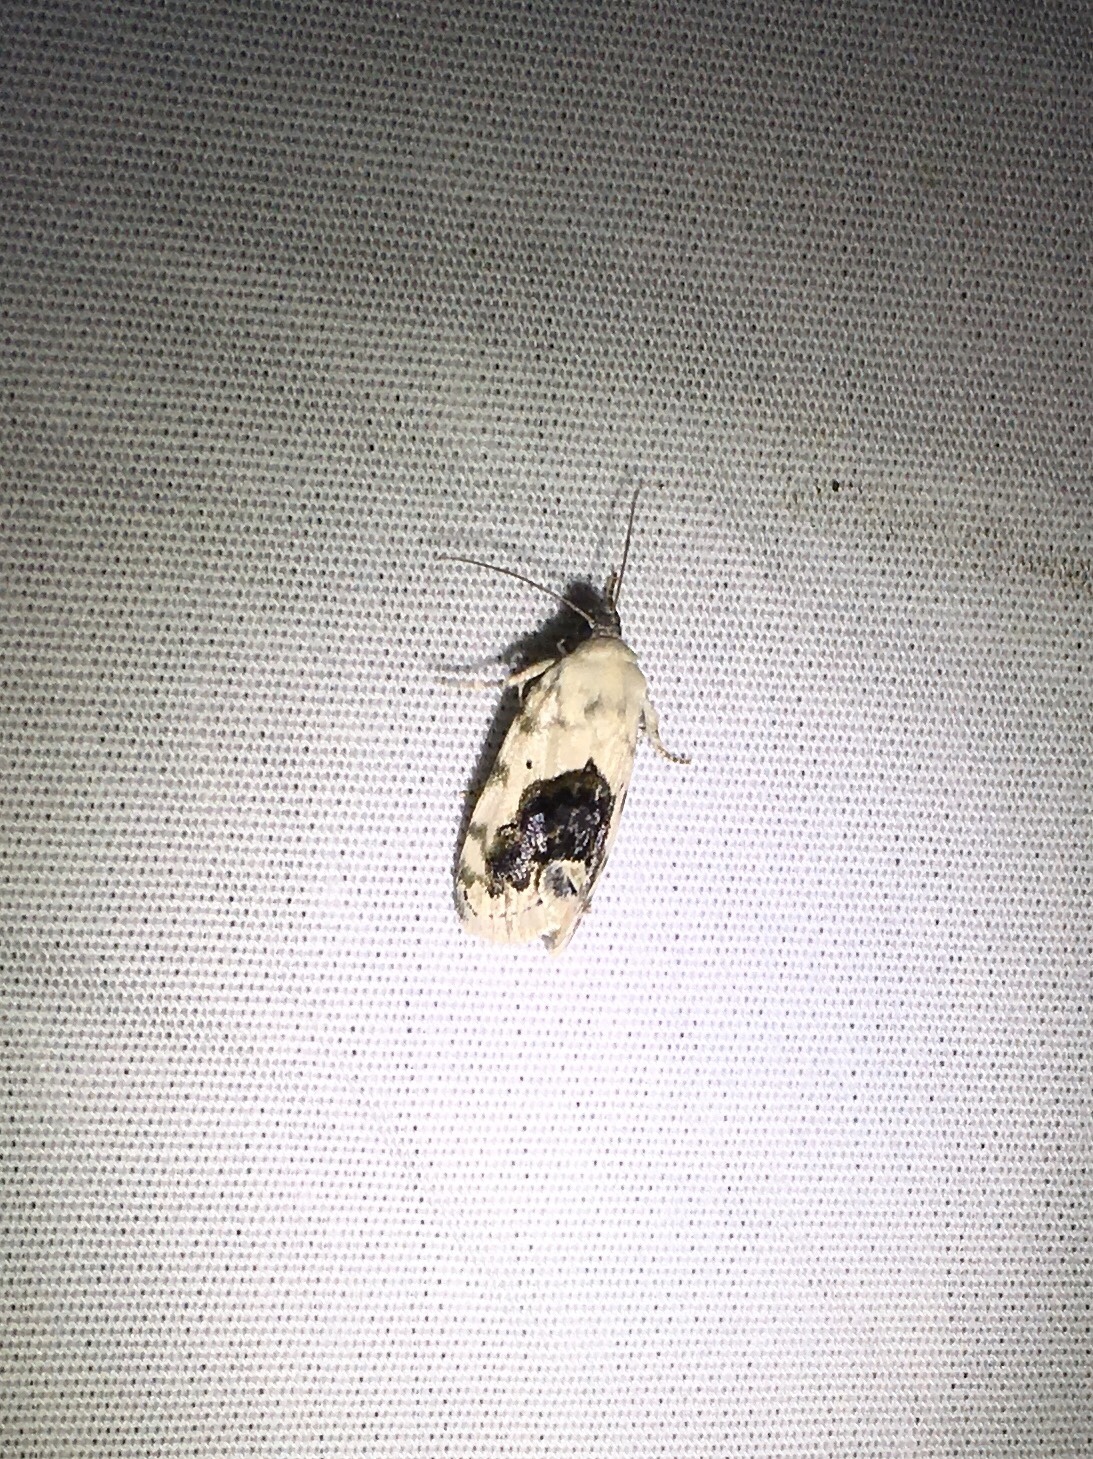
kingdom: Animalia
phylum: Arthropoda
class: Insecta
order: Lepidoptera
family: Noctuidae
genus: Acontia
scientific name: Acontia erastrioides
